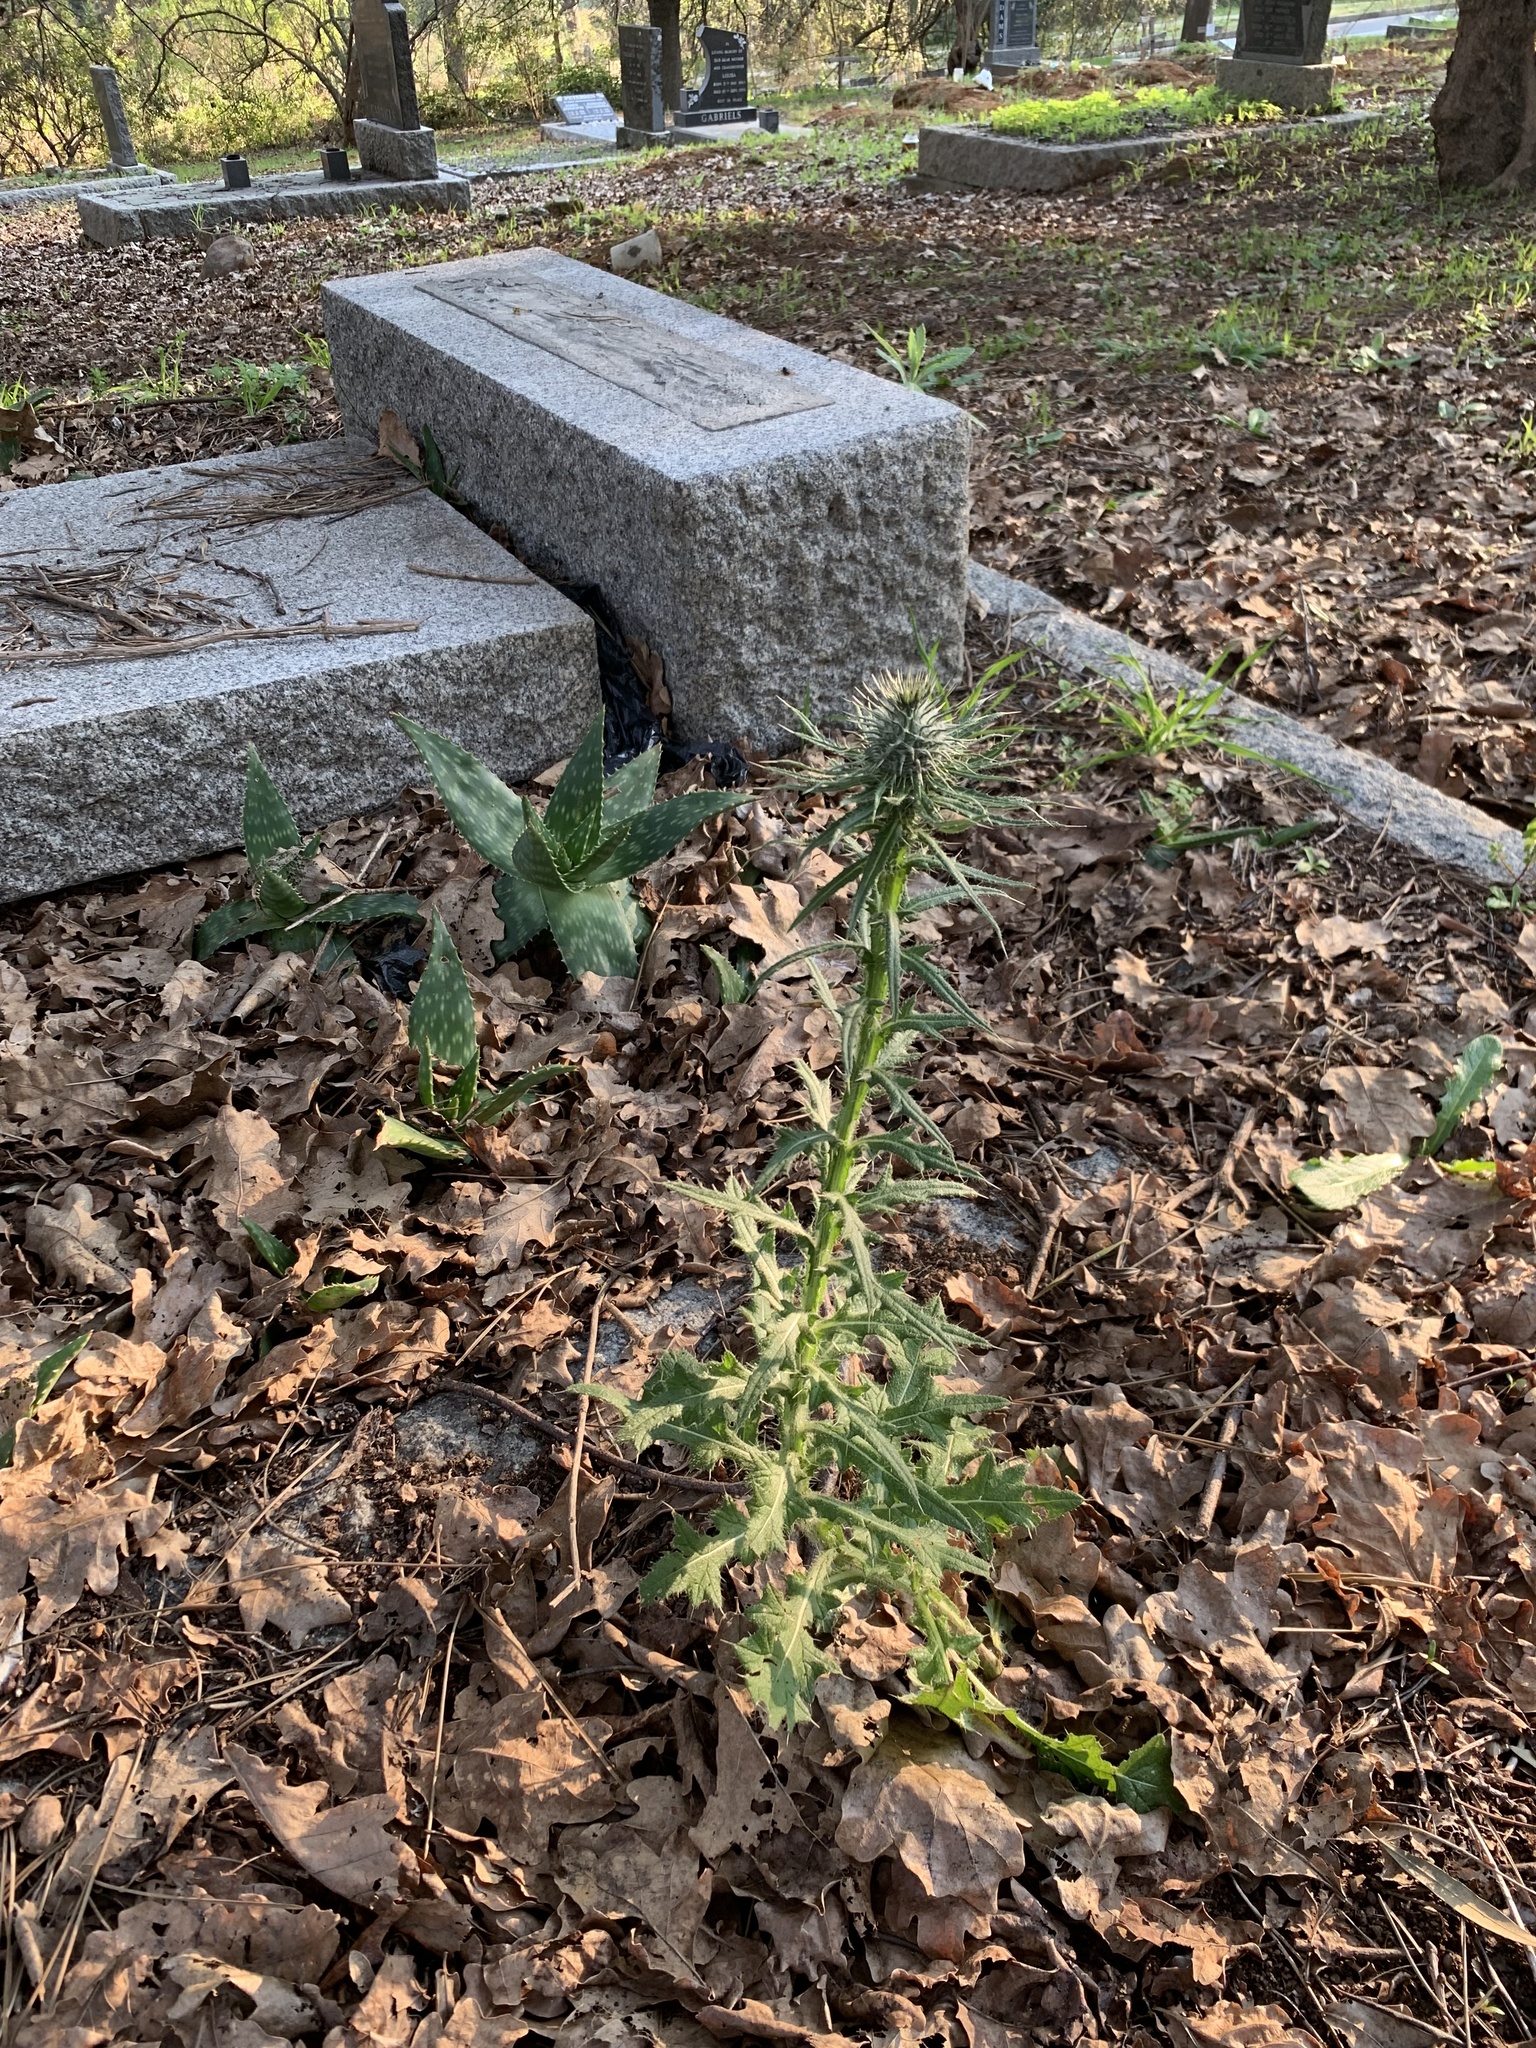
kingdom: Plantae
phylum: Tracheophyta
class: Magnoliopsida
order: Asterales
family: Asteraceae
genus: Cirsium
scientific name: Cirsium vulgare
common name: Bull thistle
